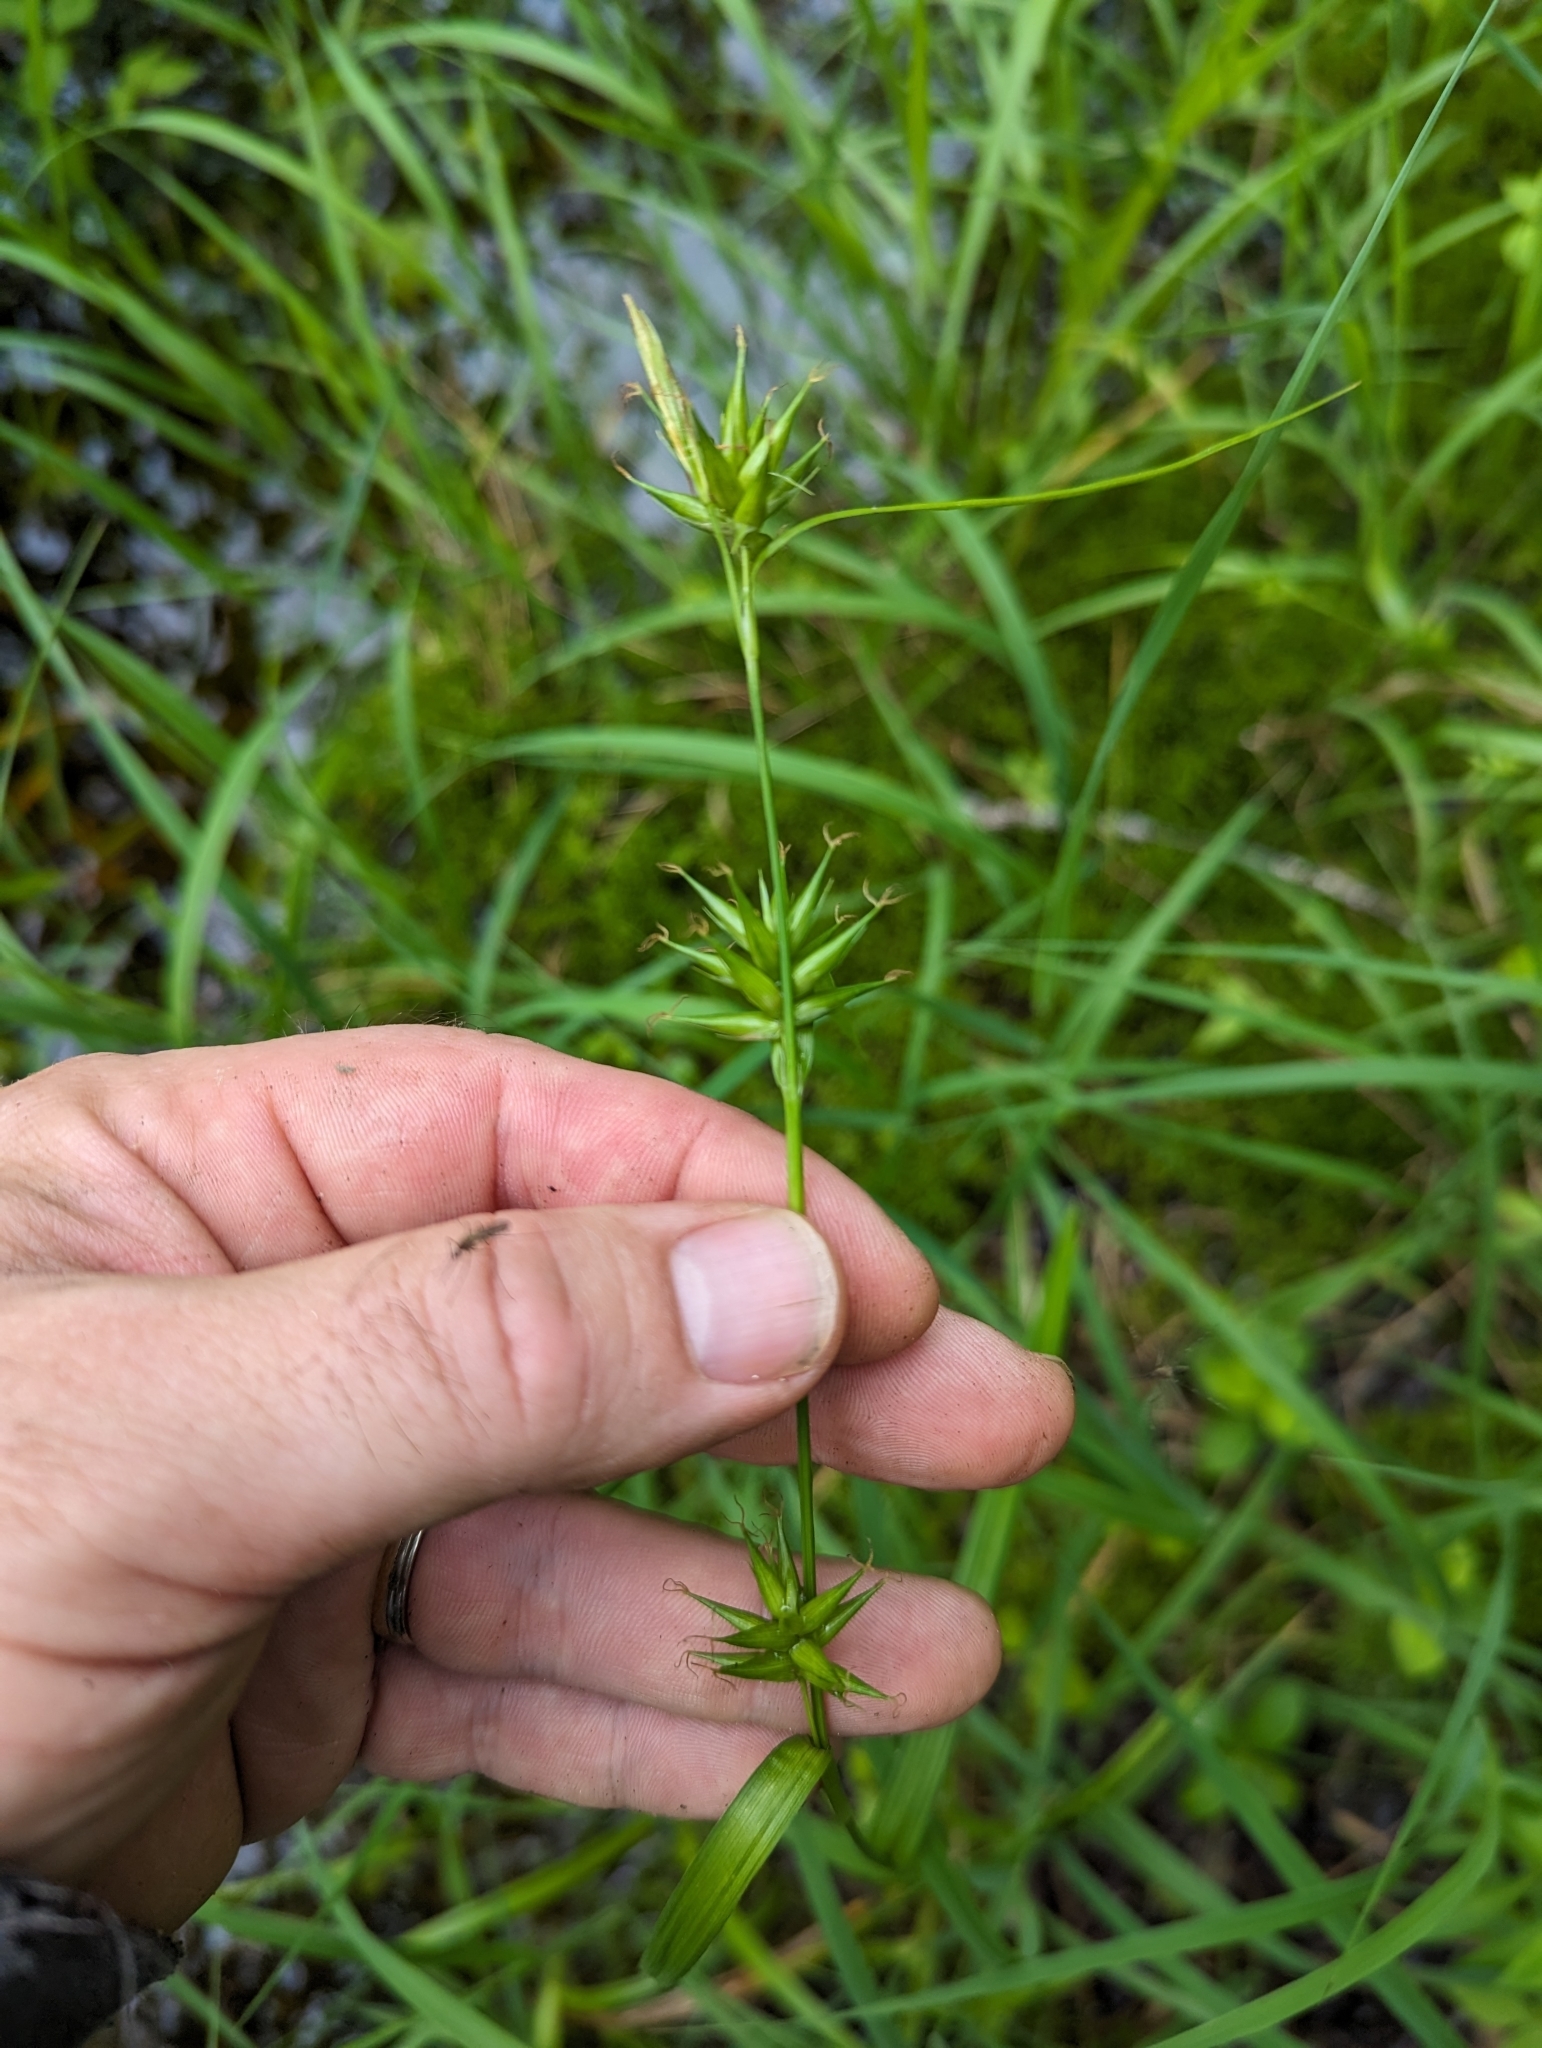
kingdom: Plantae
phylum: Tracheophyta
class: Liliopsida
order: Poales
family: Cyperaceae
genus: Carex
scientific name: Carex folliculata
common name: Northern long sedge
